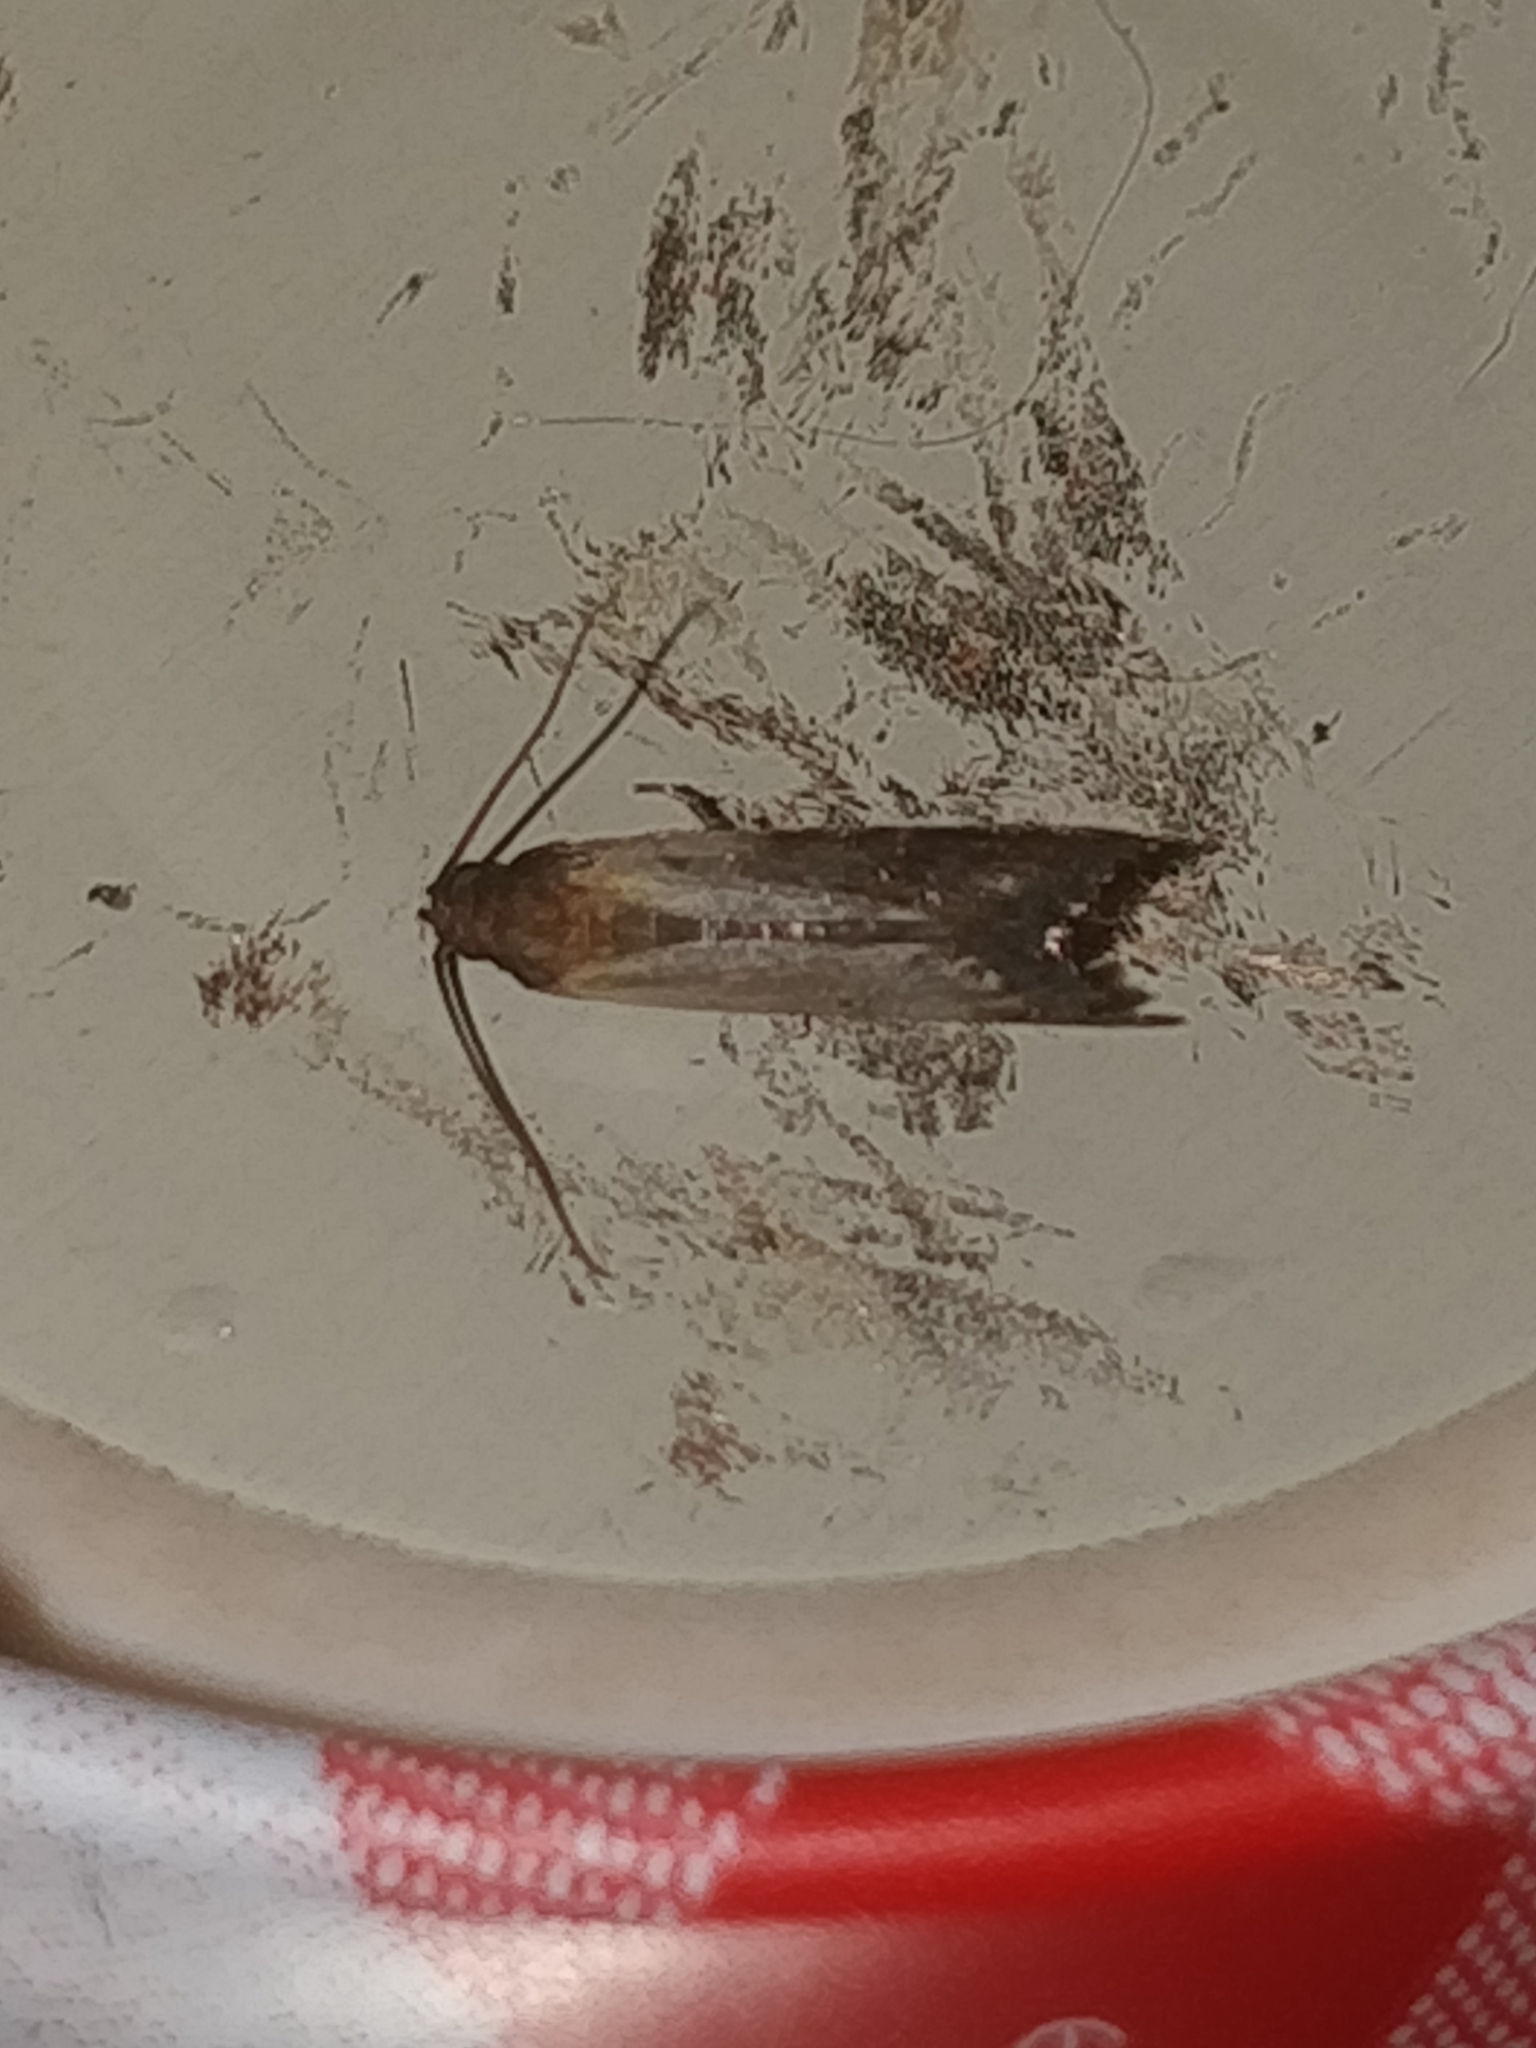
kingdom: Animalia
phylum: Arthropoda
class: Insecta
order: Lepidoptera
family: Pyralidae
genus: Plodia
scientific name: Plodia interpunctella
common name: Indian meal moth
